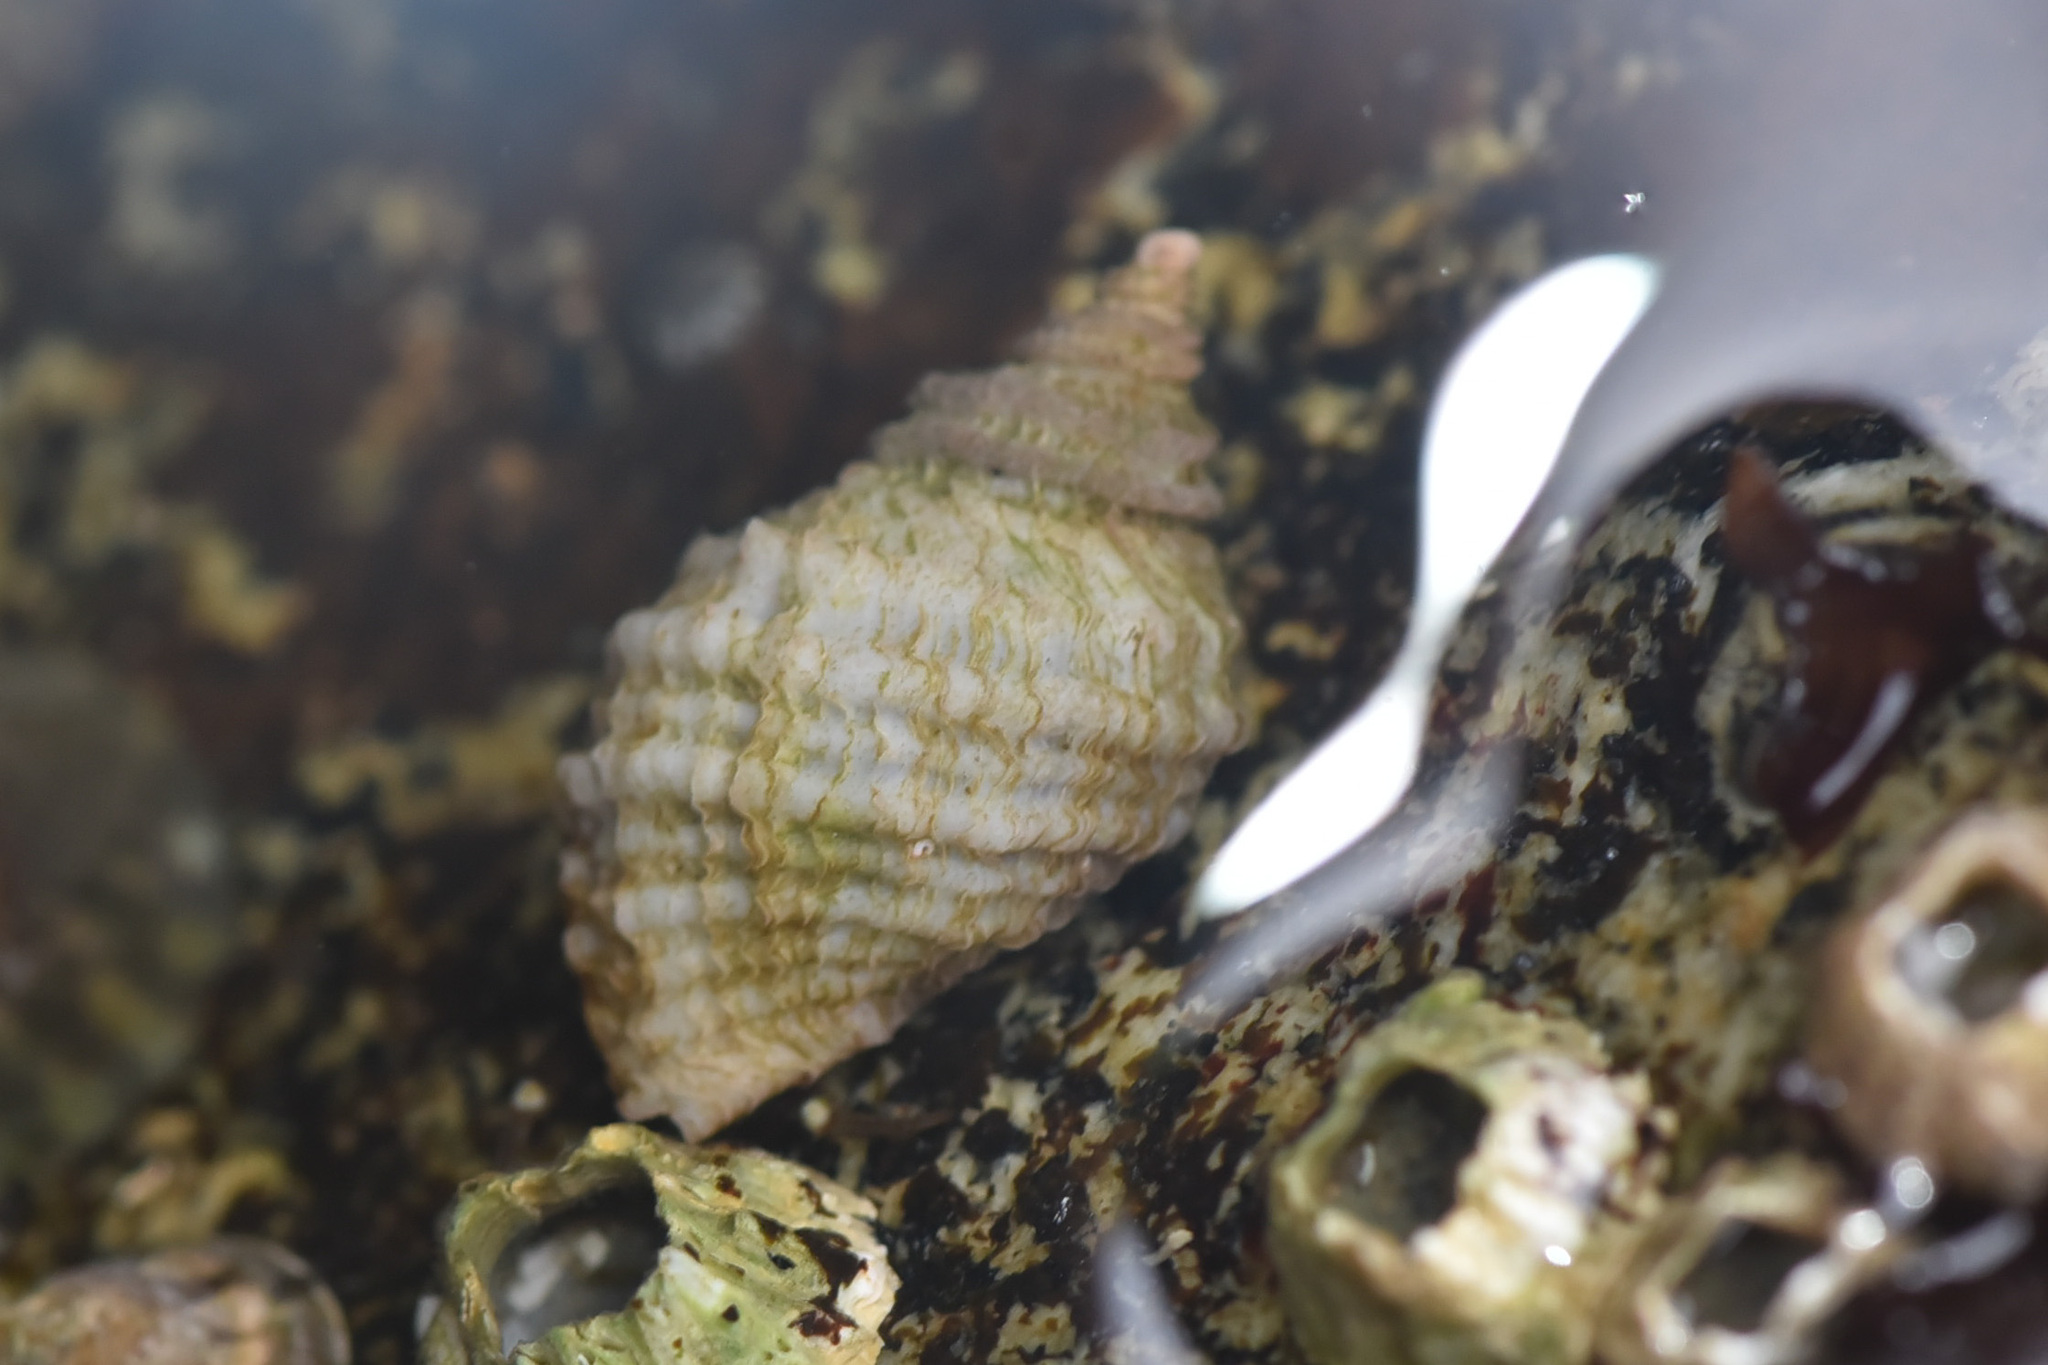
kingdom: Animalia
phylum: Mollusca
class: Gastropoda
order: Neogastropoda
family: Muricidae
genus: Nucella
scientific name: Nucella ostrina
